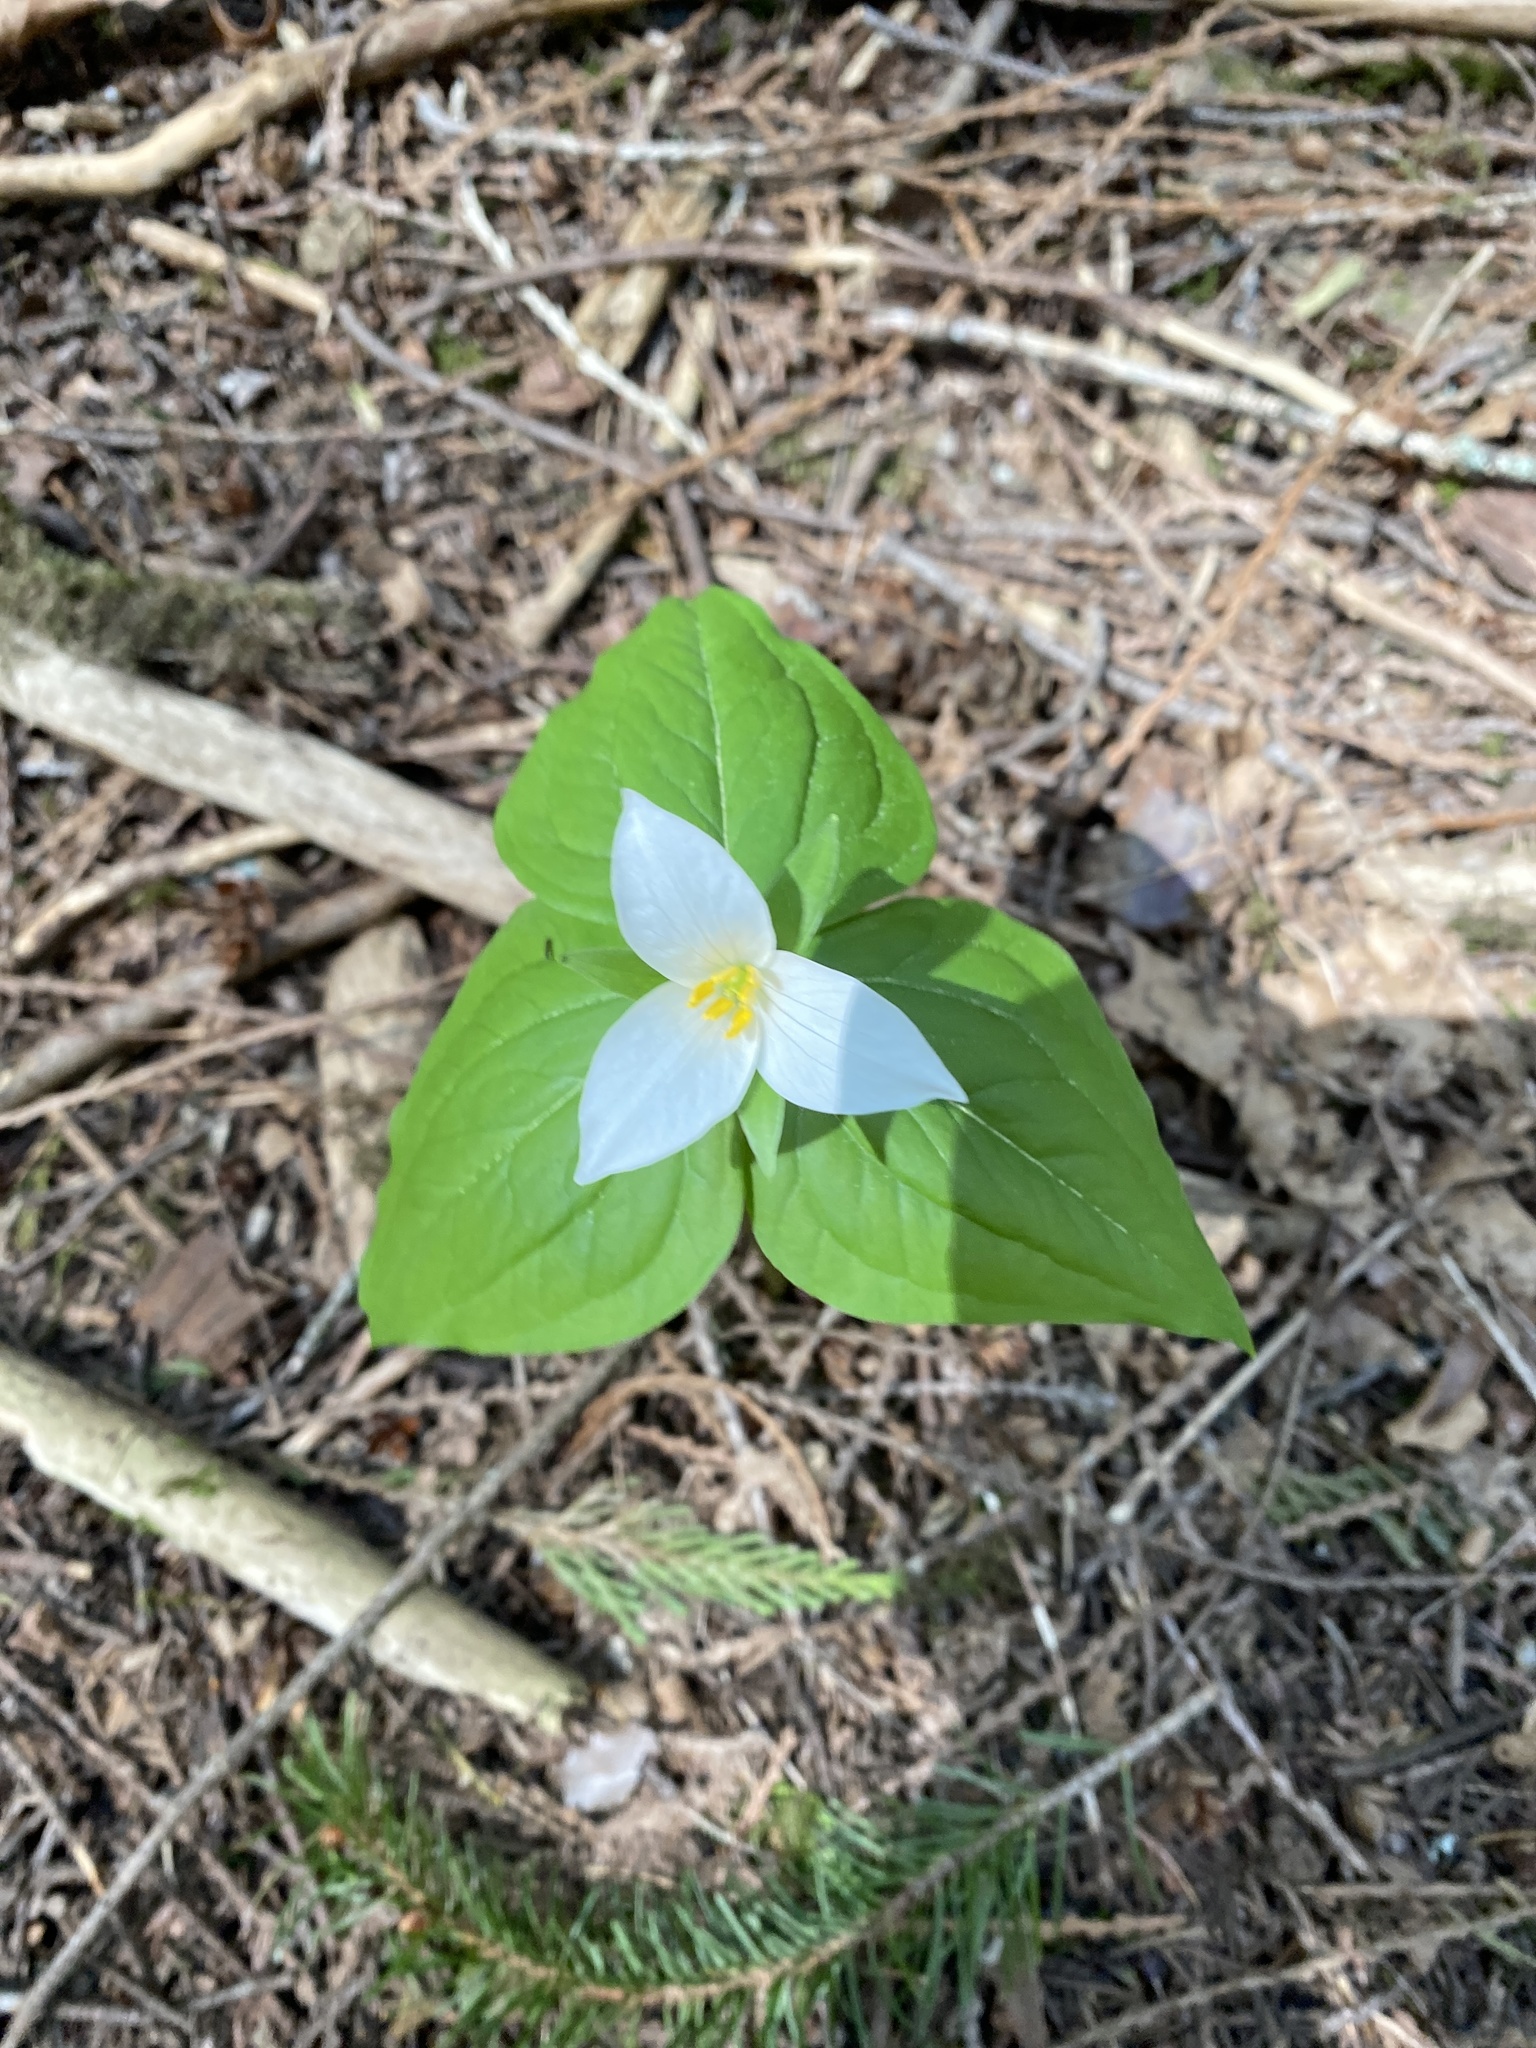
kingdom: Plantae
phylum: Tracheophyta
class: Liliopsida
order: Liliales
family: Melanthiaceae
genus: Trillium
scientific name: Trillium ovatum
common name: Pacific trillium
